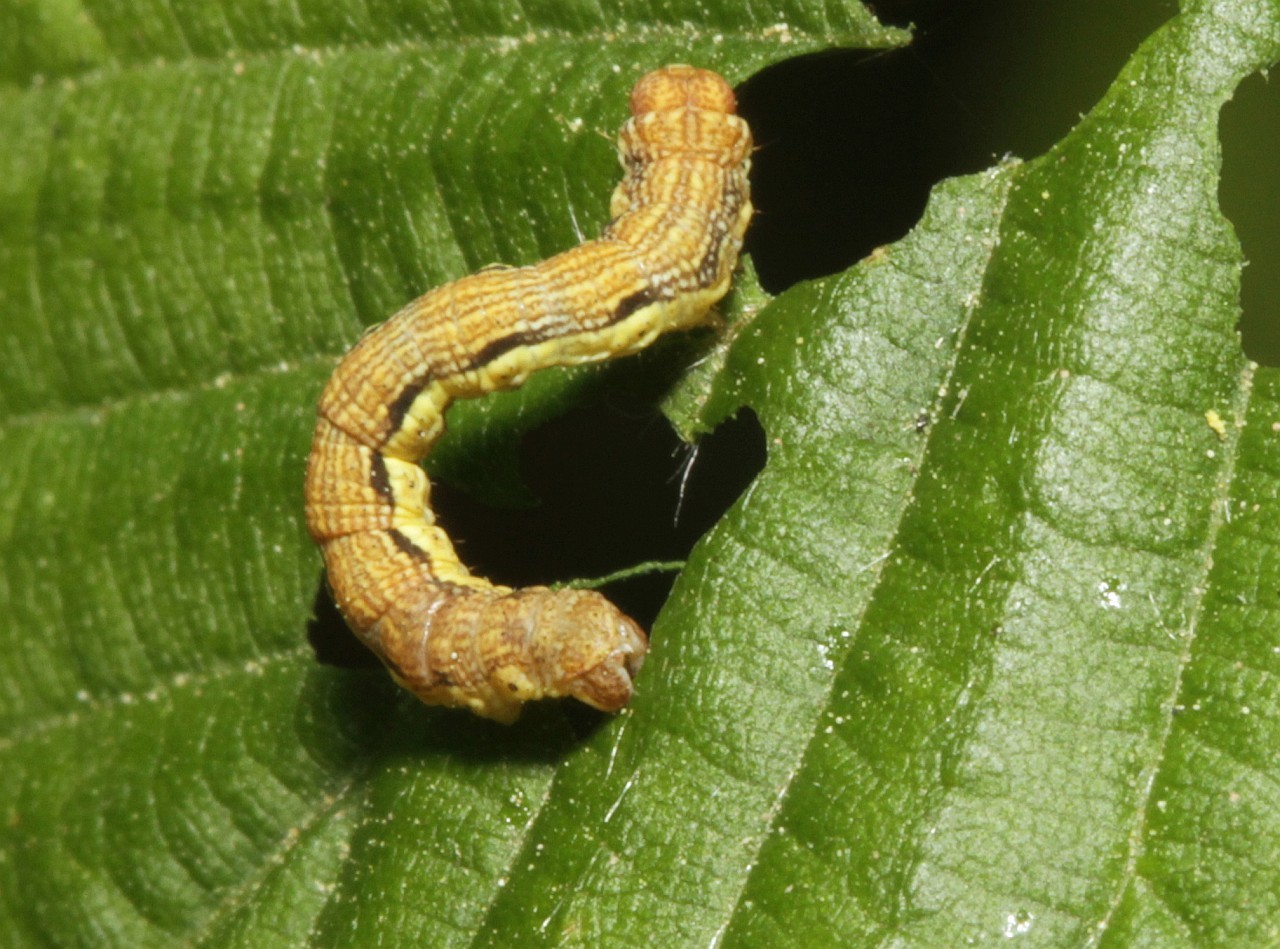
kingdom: Animalia
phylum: Arthropoda
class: Insecta
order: Lepidoptera
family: Geometridae
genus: Erannis
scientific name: Erannis defoliaria
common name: Mottled umber
